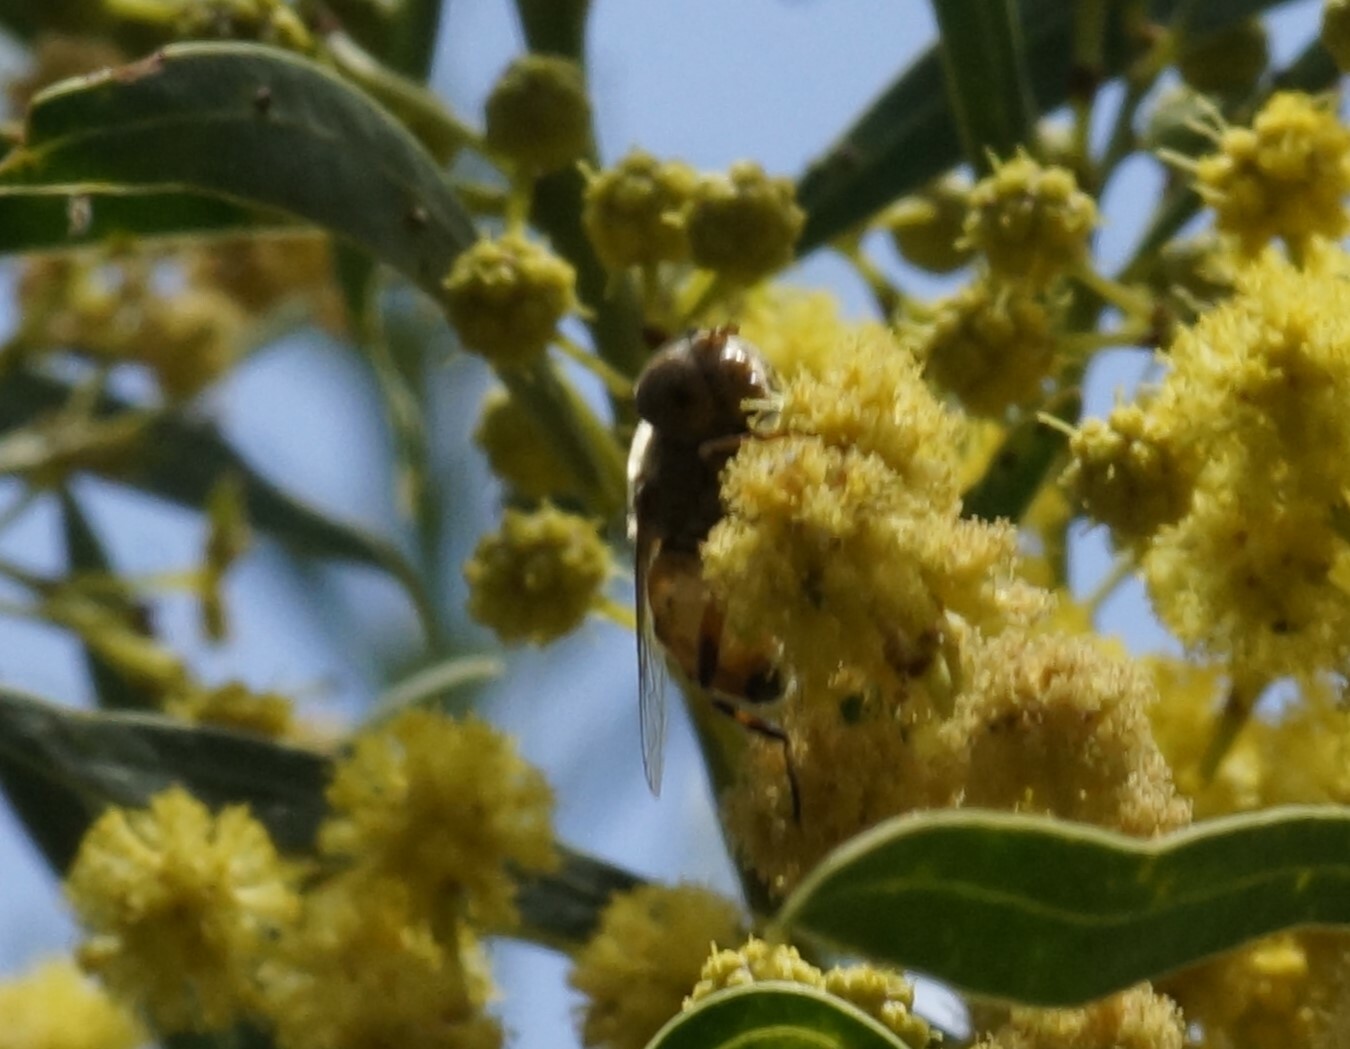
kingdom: Animalia
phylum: Arthropoda
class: Insecta
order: Diptera
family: Syrphidae
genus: Eristalinus
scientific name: Eristalinus punctulatus
